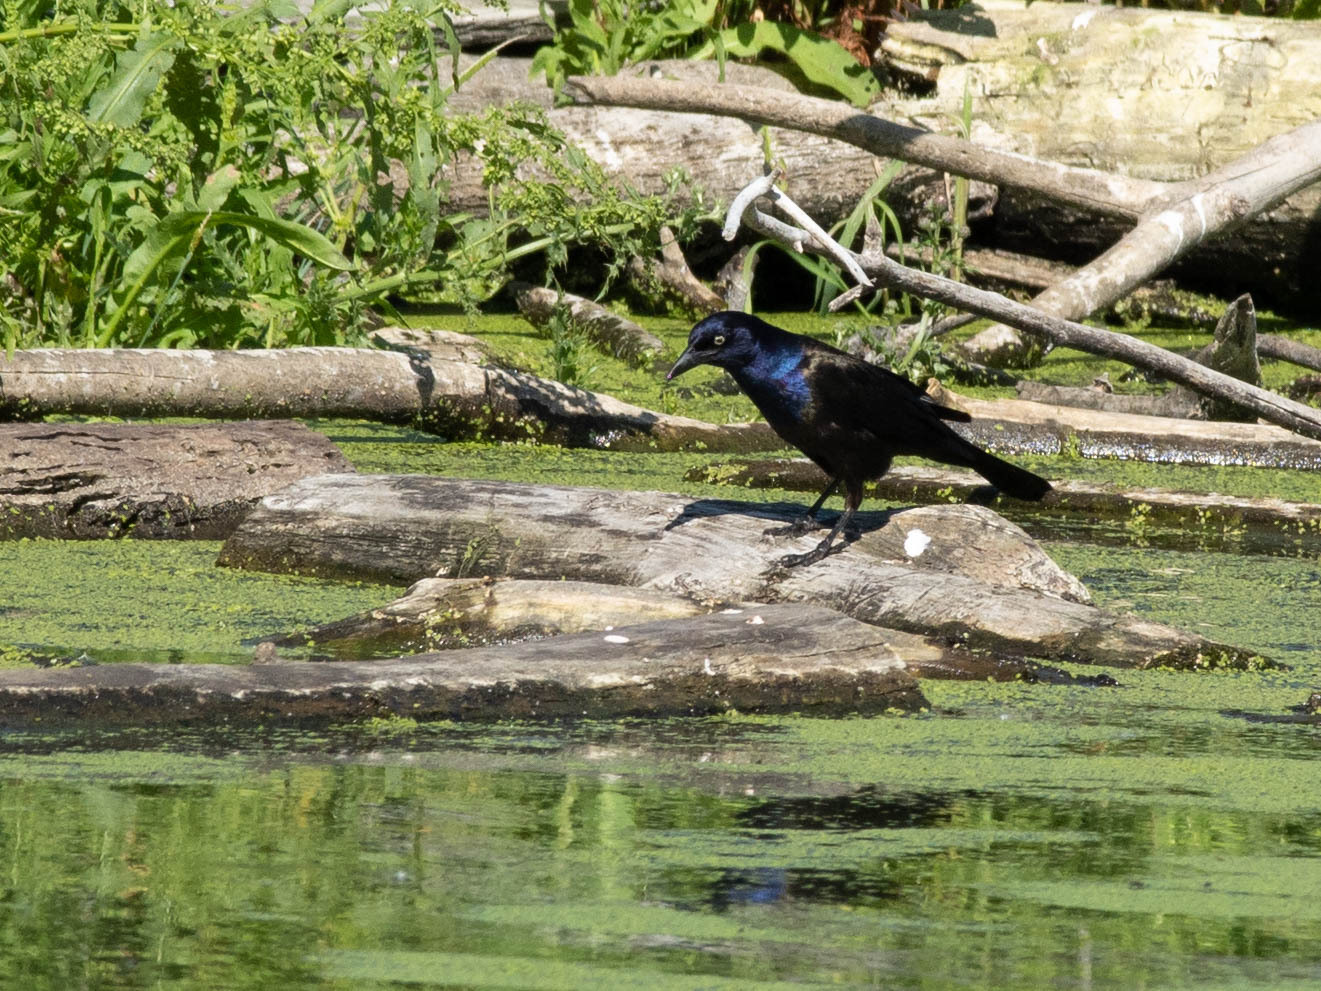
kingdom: Animalia
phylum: Chordata
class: Aves
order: Passeriformes
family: Icteridae
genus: Quiscalus
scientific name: Quiscalus quiscula
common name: Common grackle
